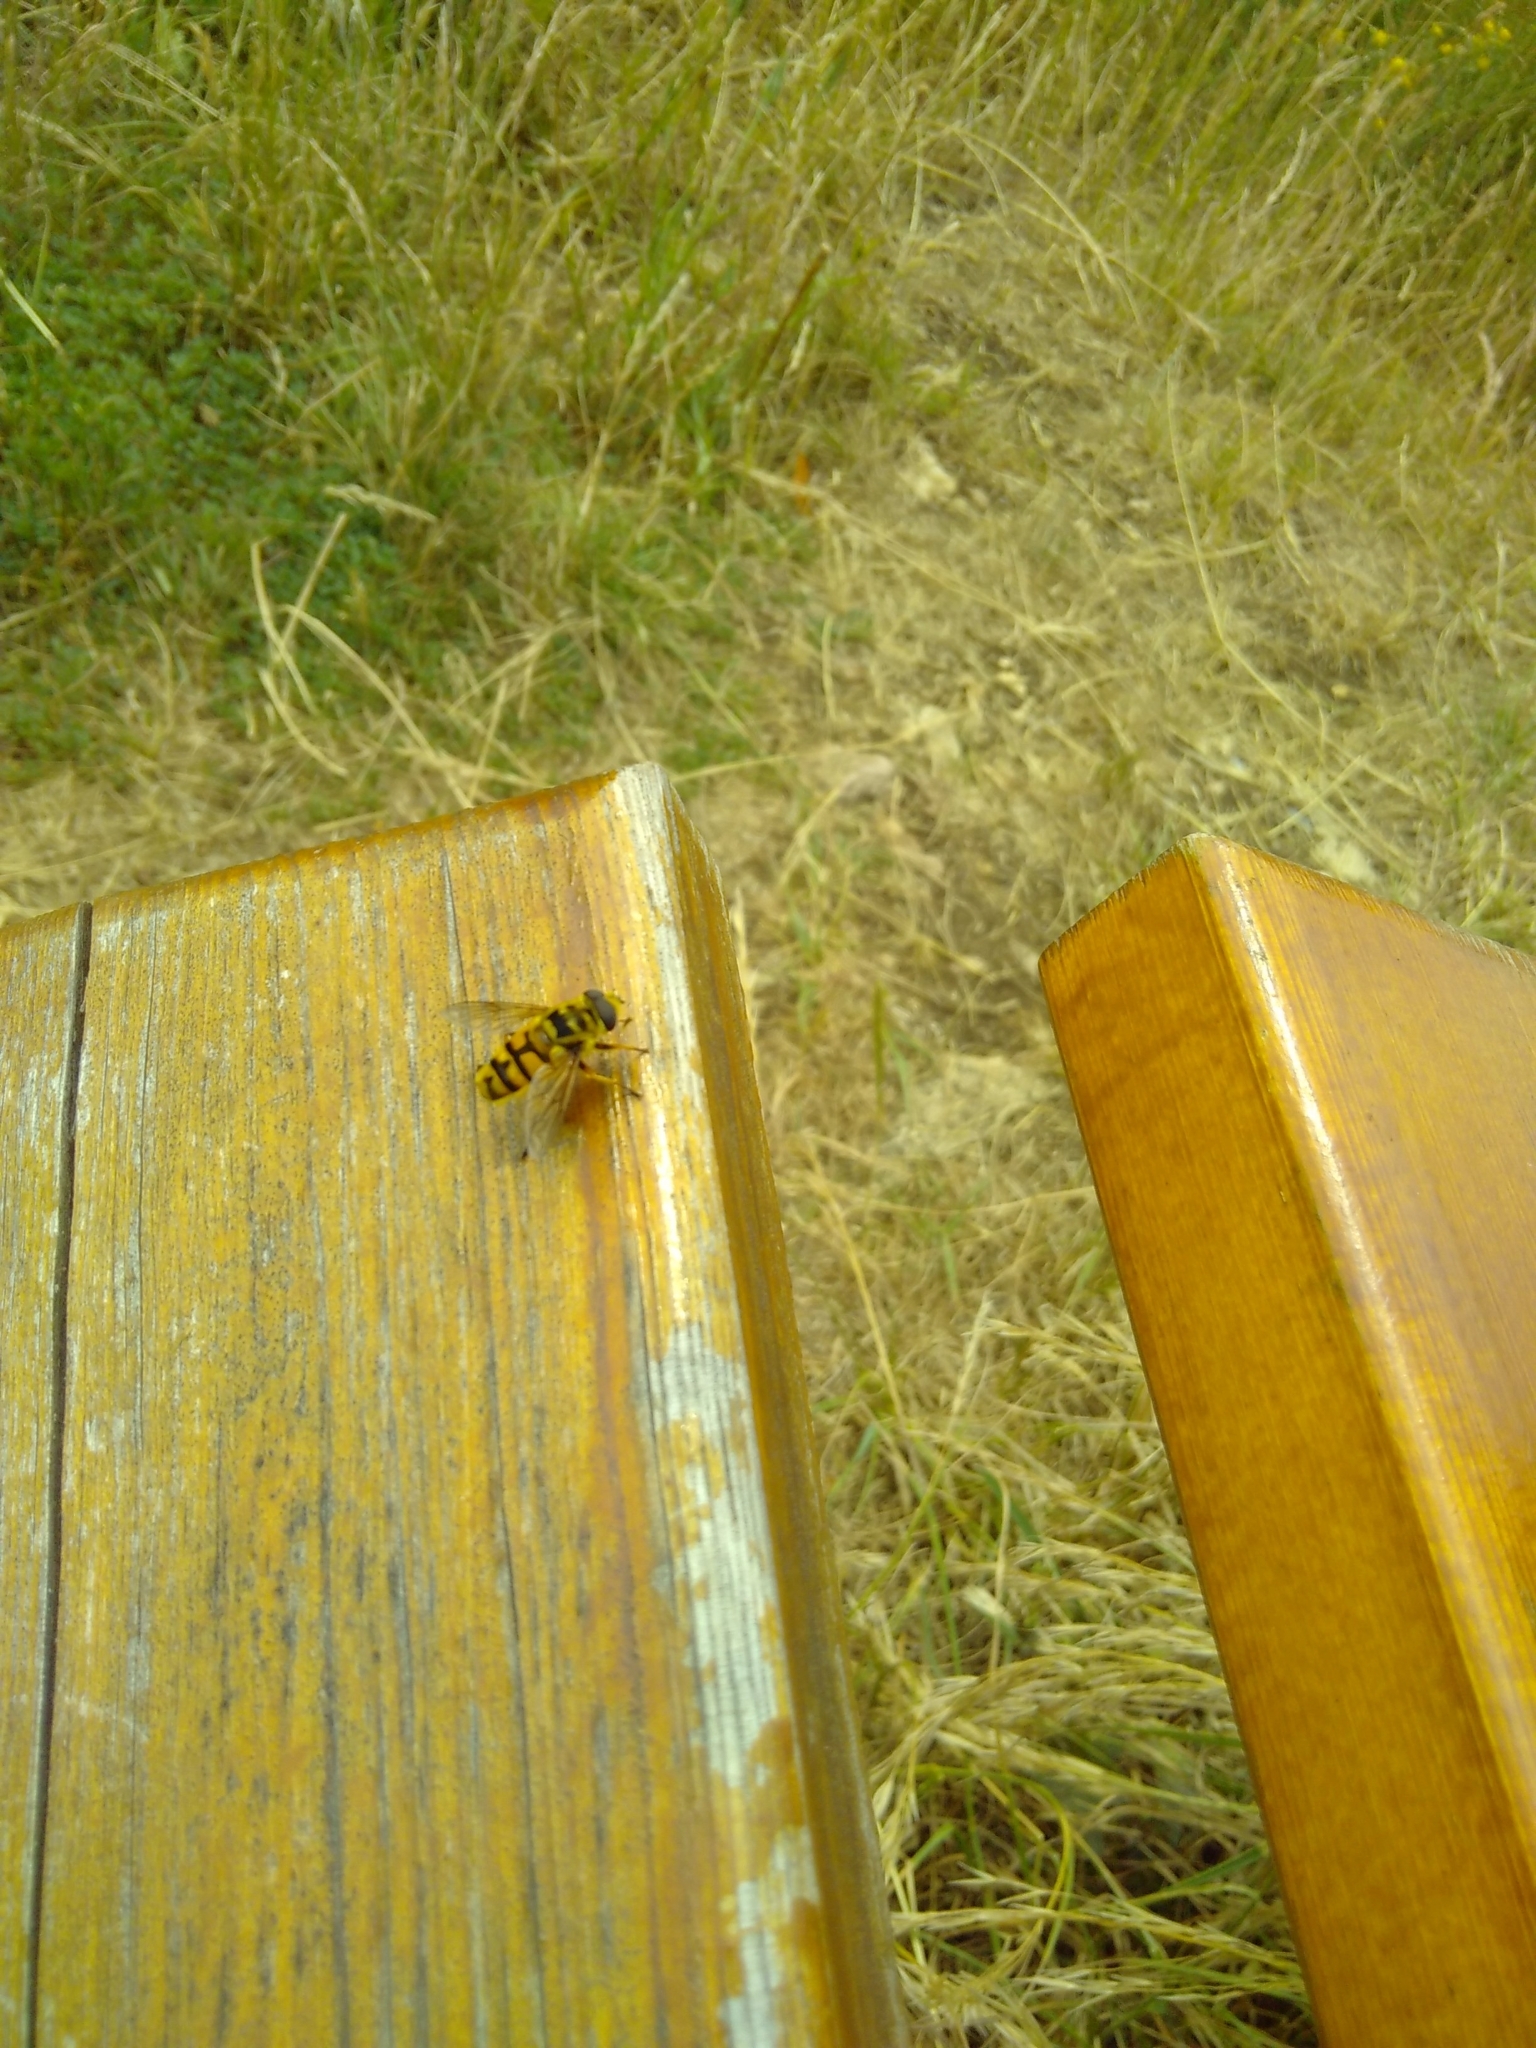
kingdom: Animalia
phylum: Arthropoda
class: Insecta
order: Diptera
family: Syrphidae
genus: Myathropa
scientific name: Myathropa florea
